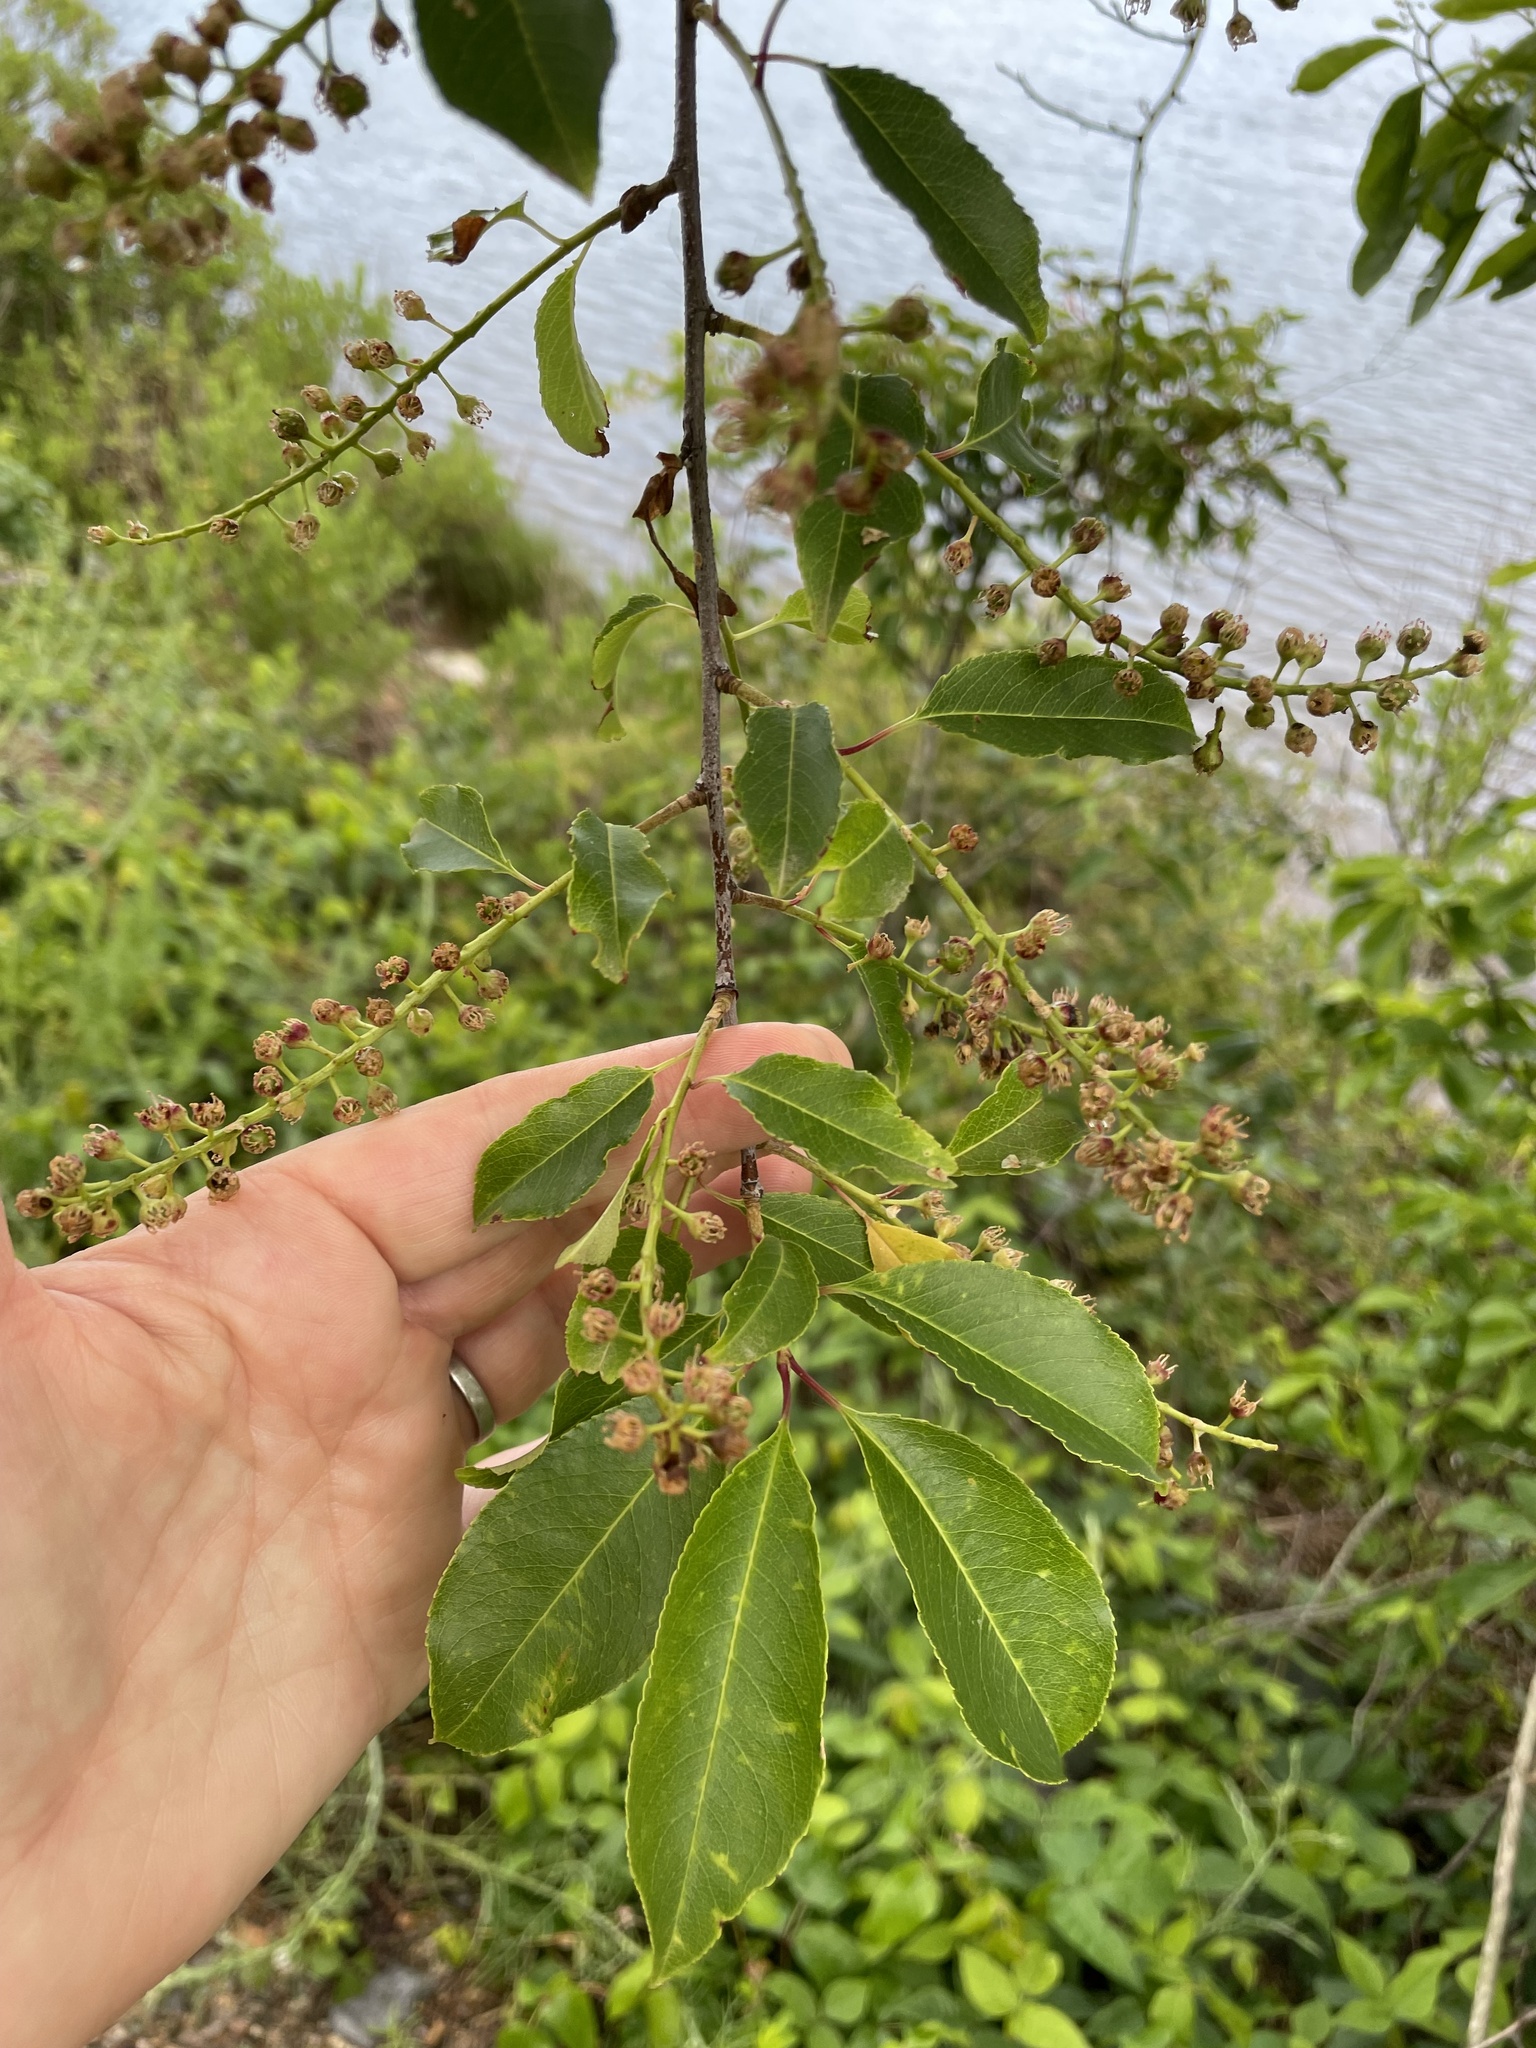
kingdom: Plantae
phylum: Tracheophyta
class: Magnoliopsida
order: Rosales
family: Rosaceae
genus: Prunus
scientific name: Prunus serotina
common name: Black cherry
